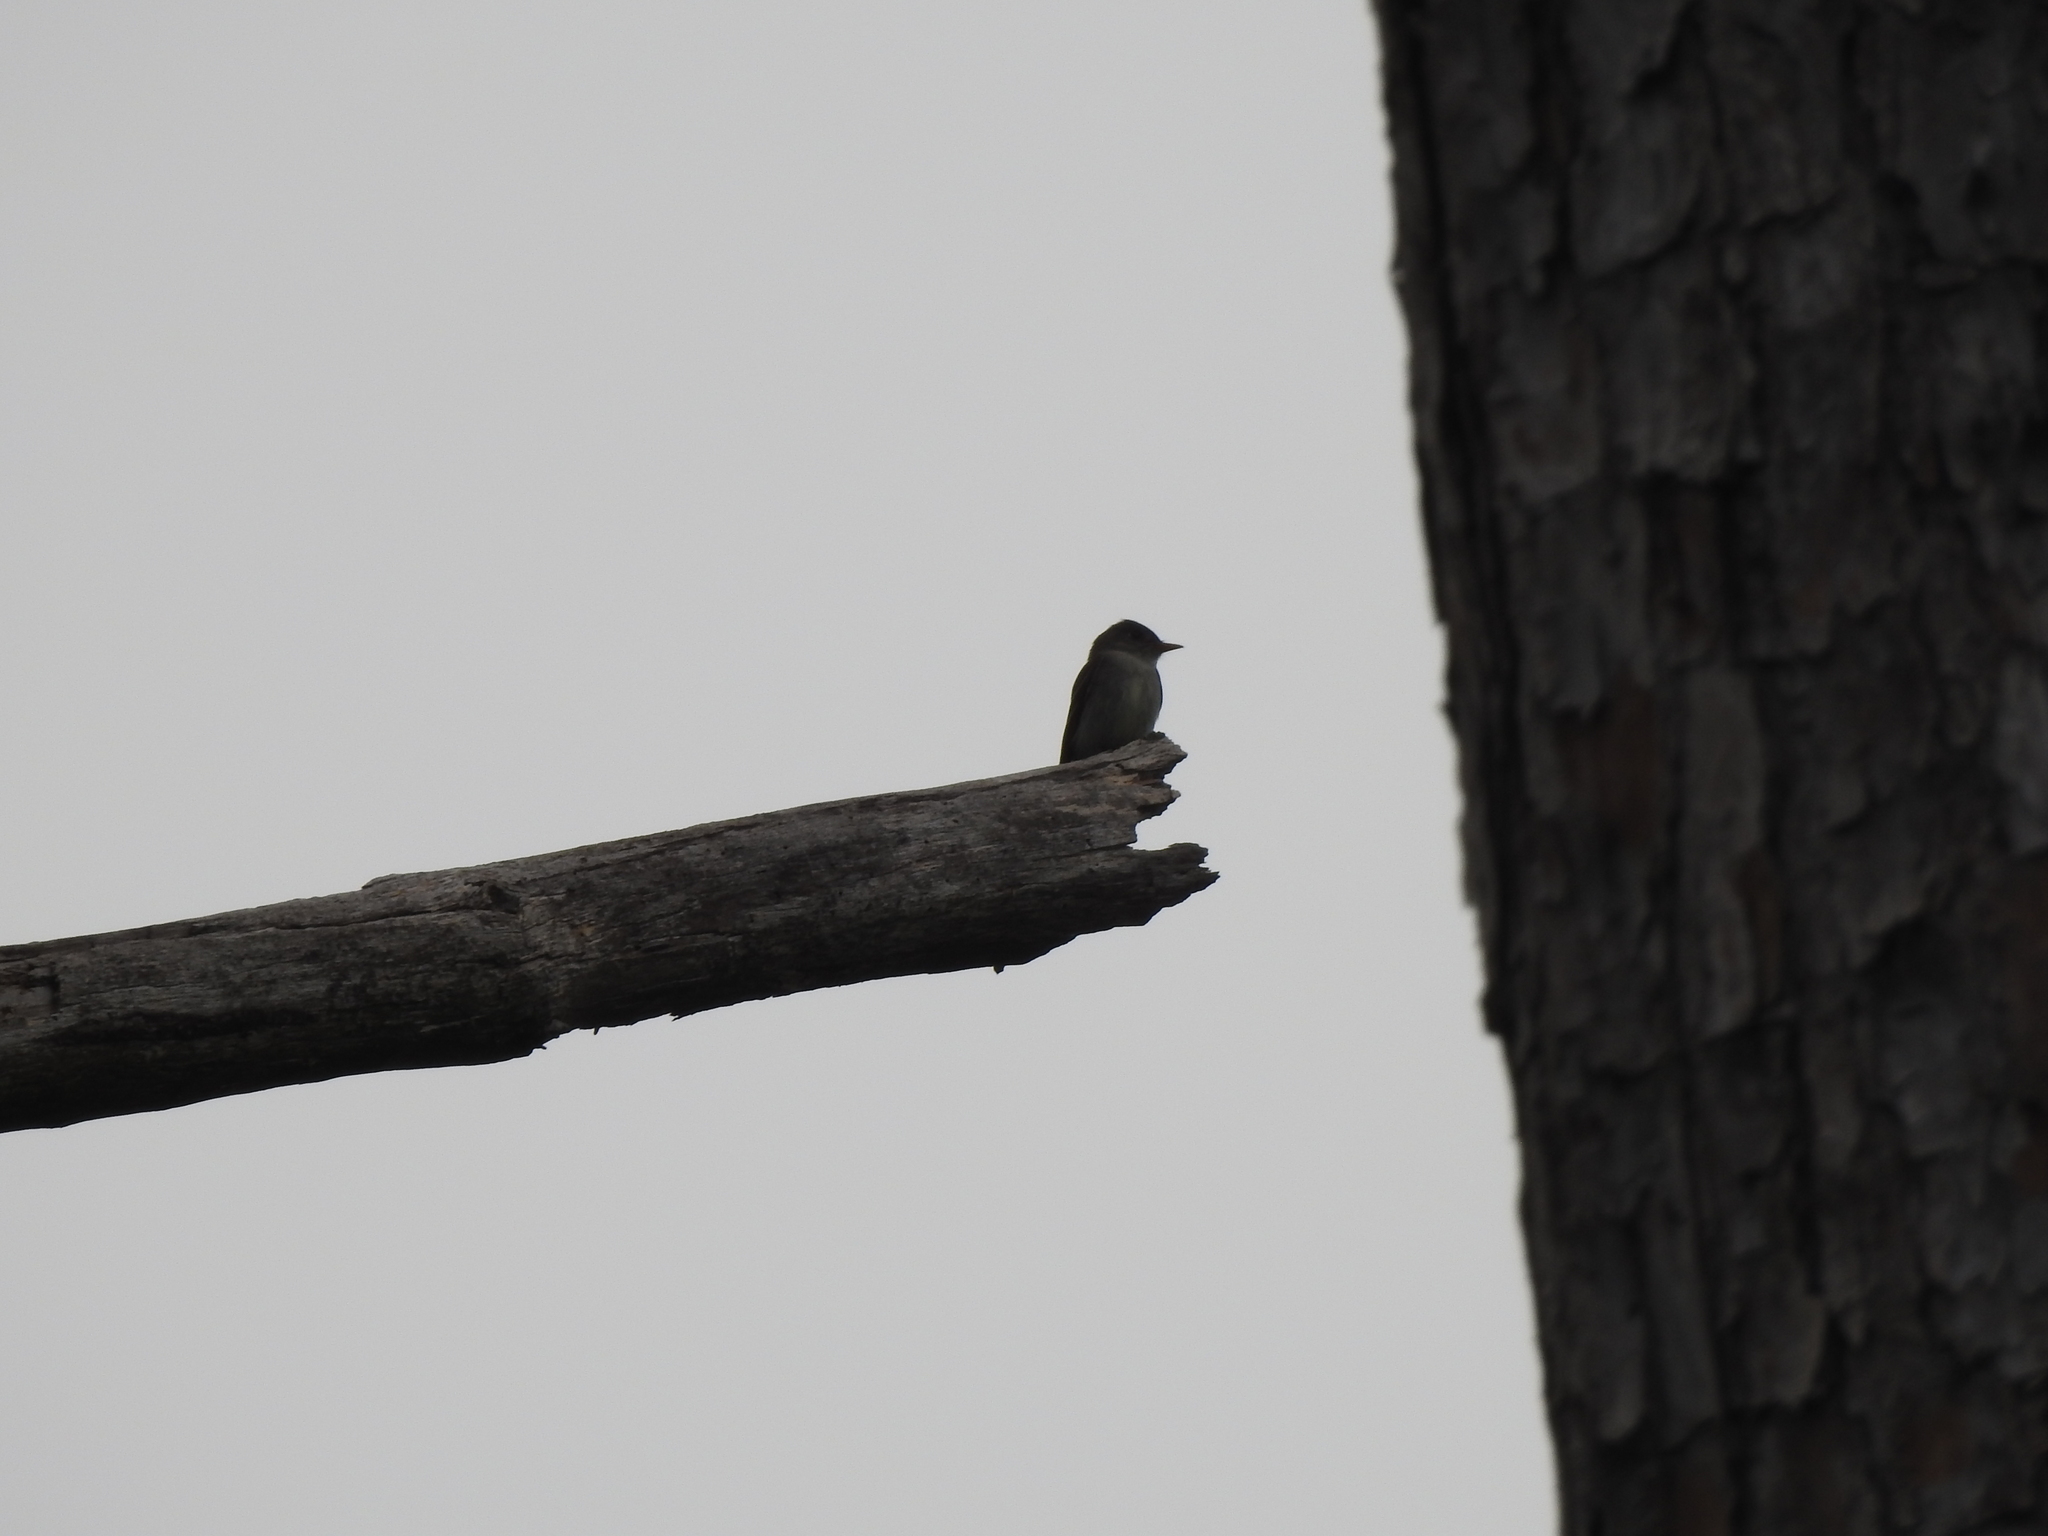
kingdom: Animalia
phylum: Chordata
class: Aves
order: Passeriformes
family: Tyrannidae
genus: Contopus
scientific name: Contopus virens
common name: Eastern wood-pewee
